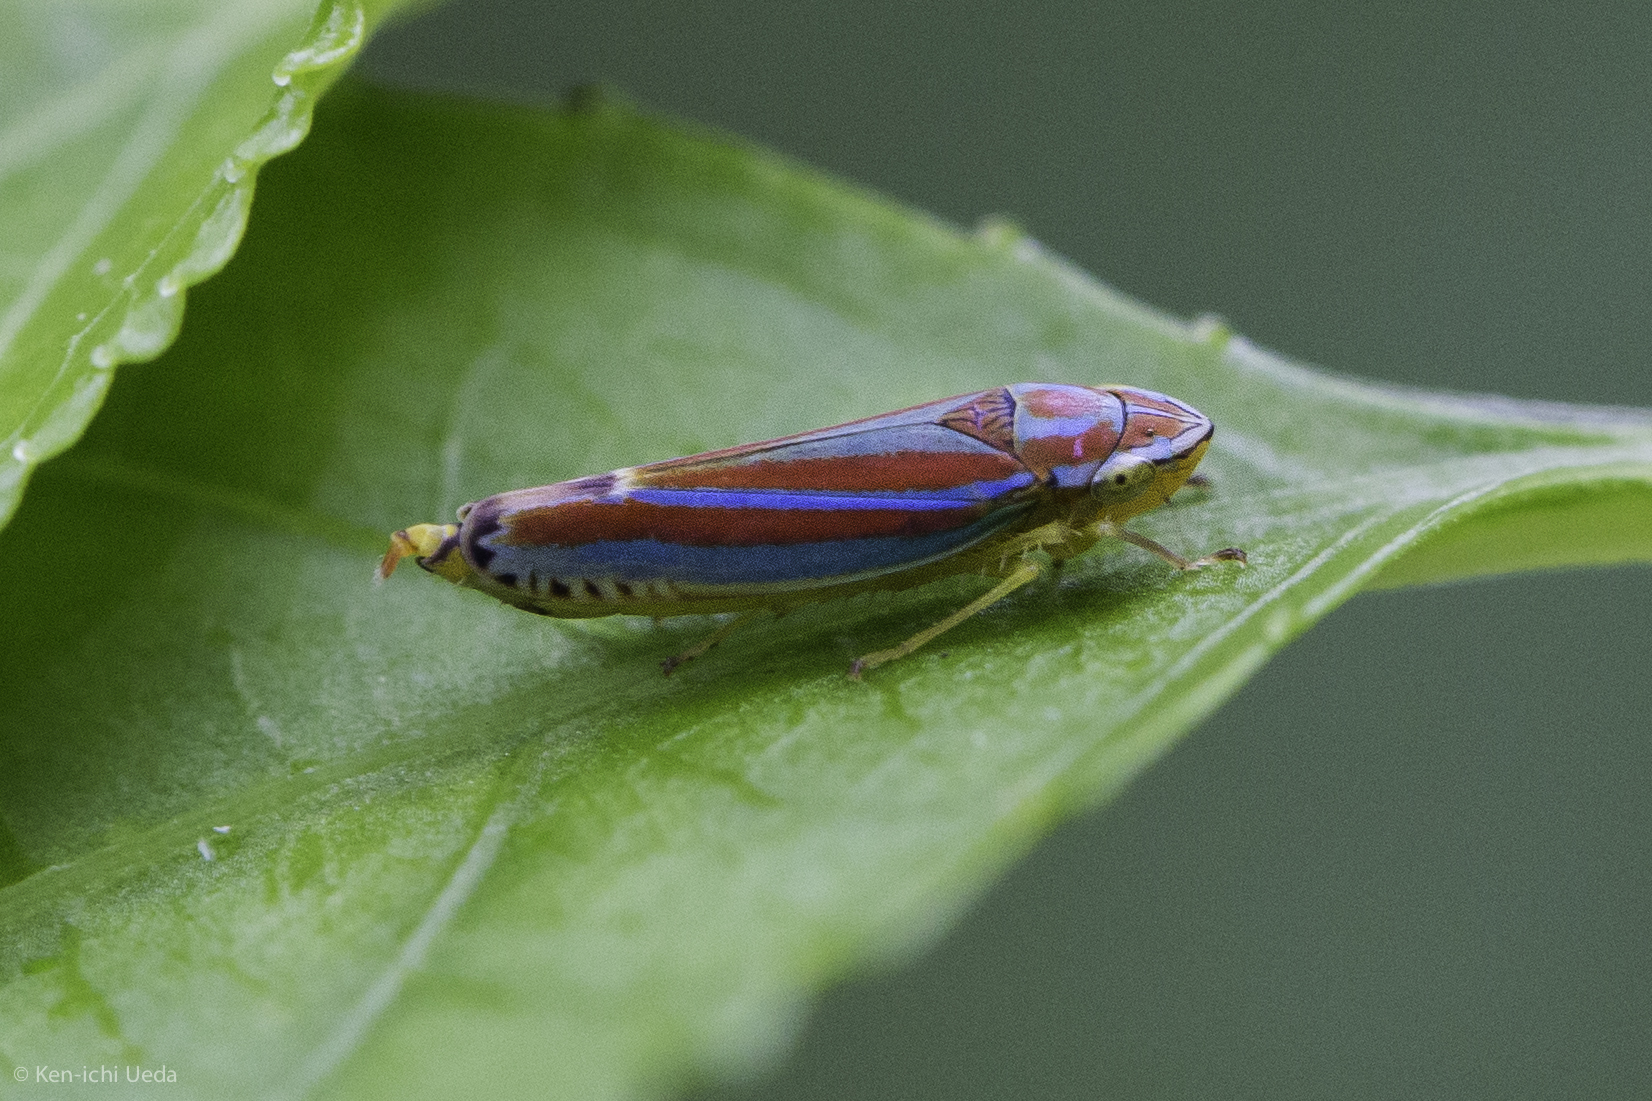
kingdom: Animalia
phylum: Arthropoda
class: Insecta
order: Hemiptera
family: Cicadellidae
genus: Graphocephala
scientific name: Graphocephala versuta
